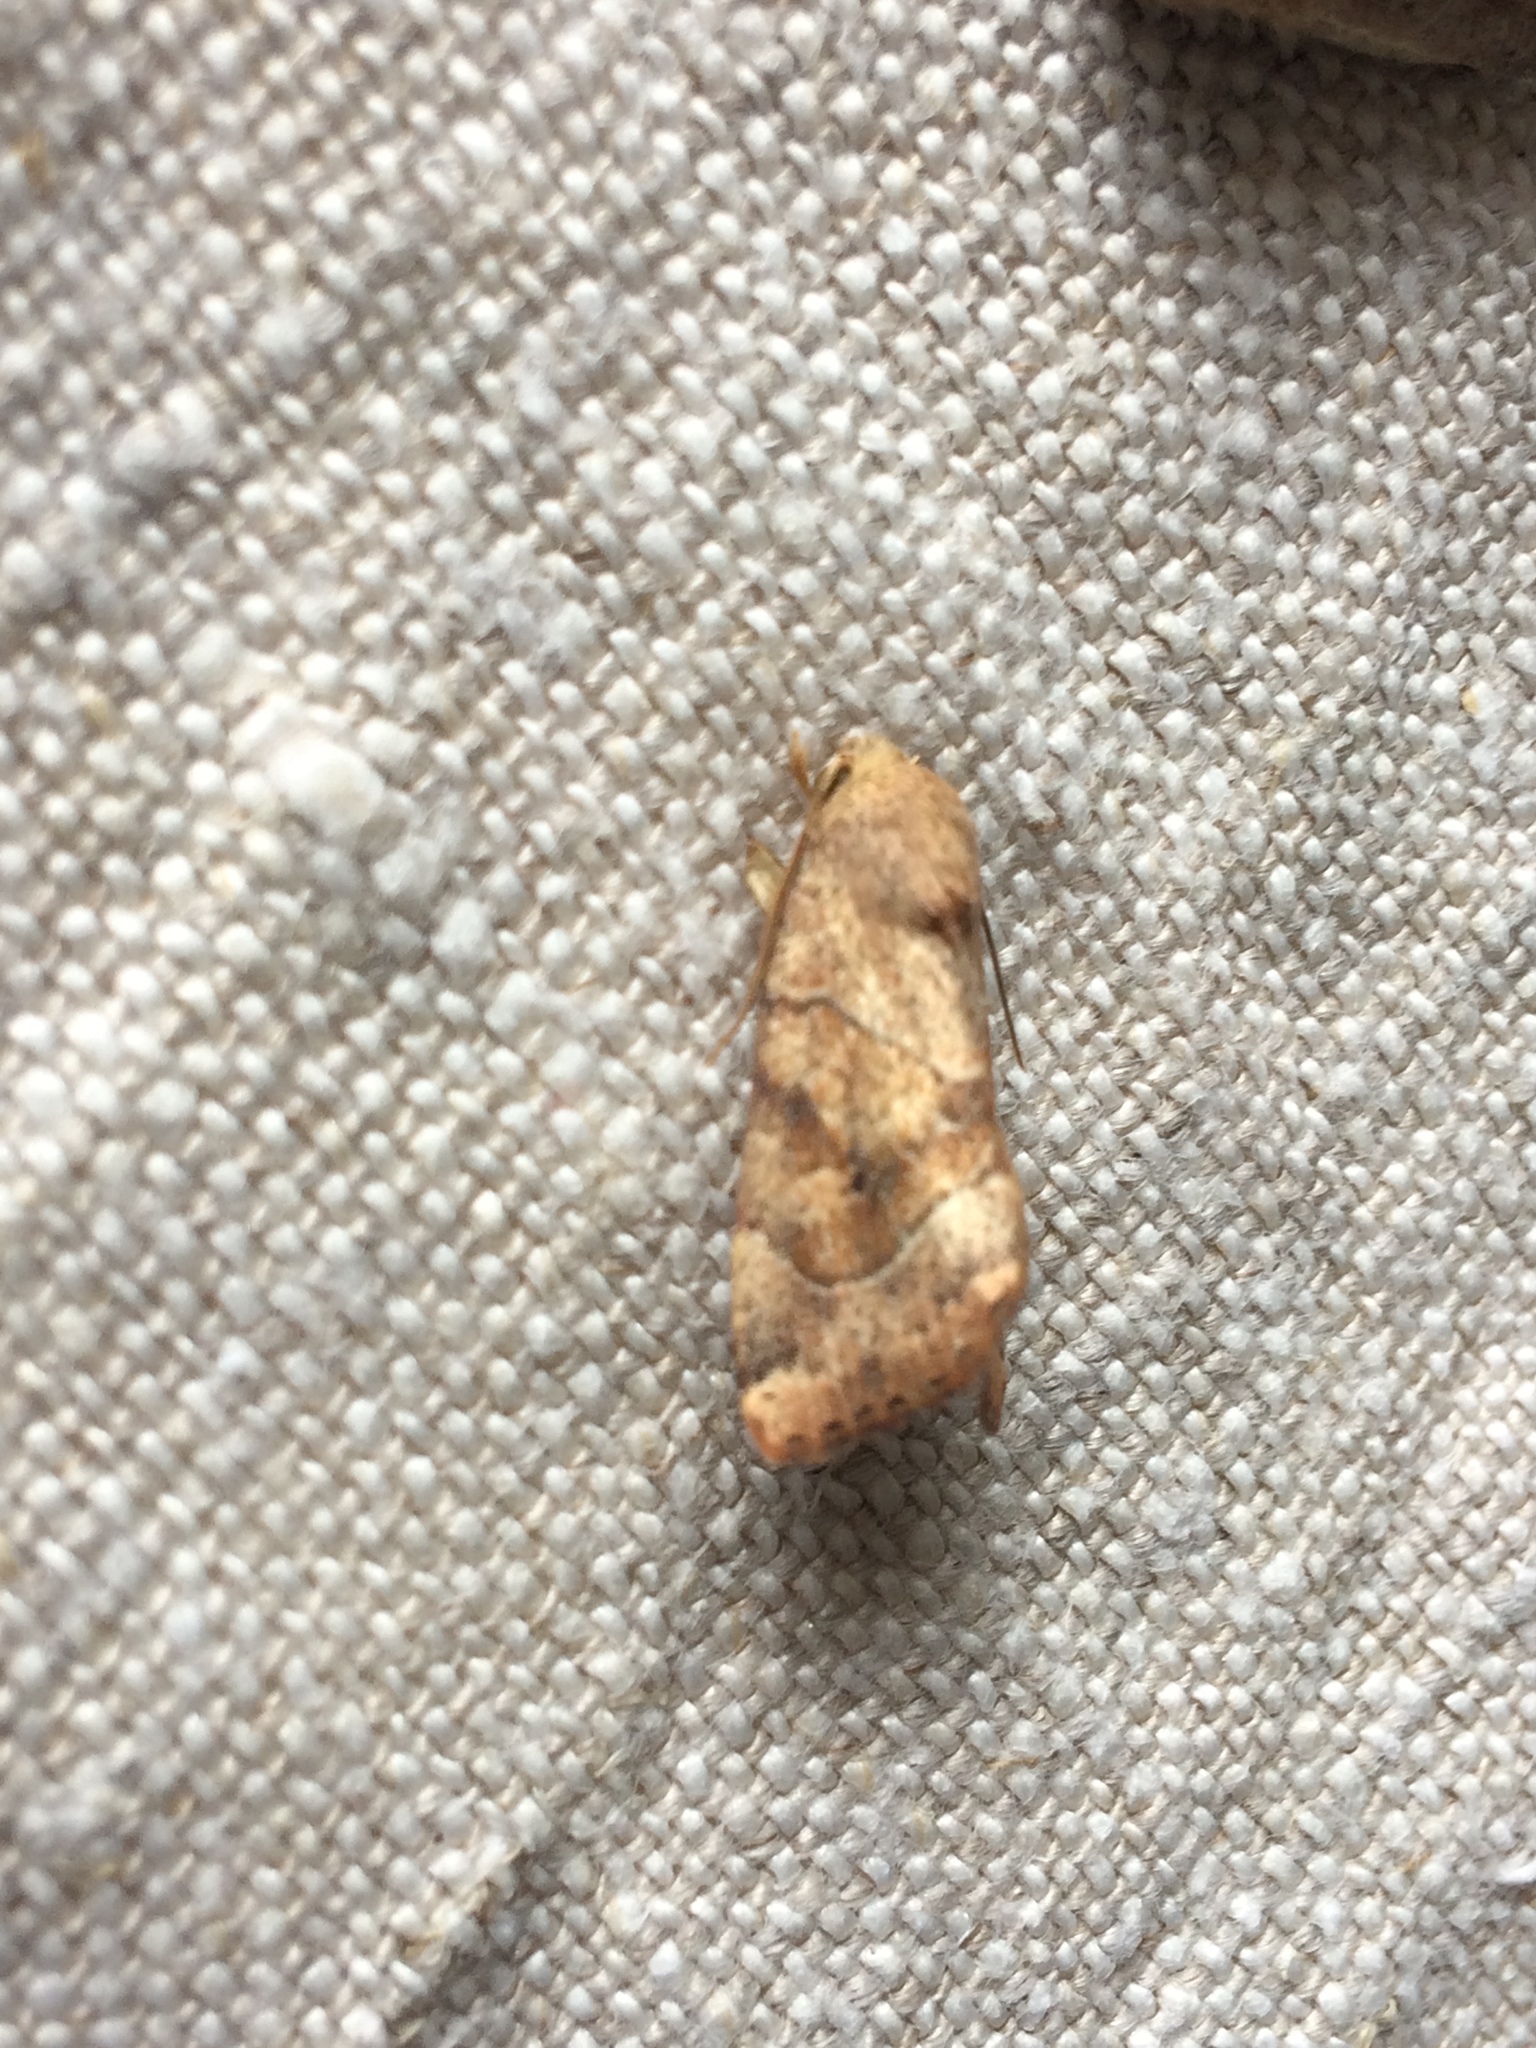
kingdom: Animalia
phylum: Arthropoda
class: Insecta
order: Lepidoptera
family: Noctuidae
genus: Cosmia
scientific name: Cosmia trapezina
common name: Dun-bar
